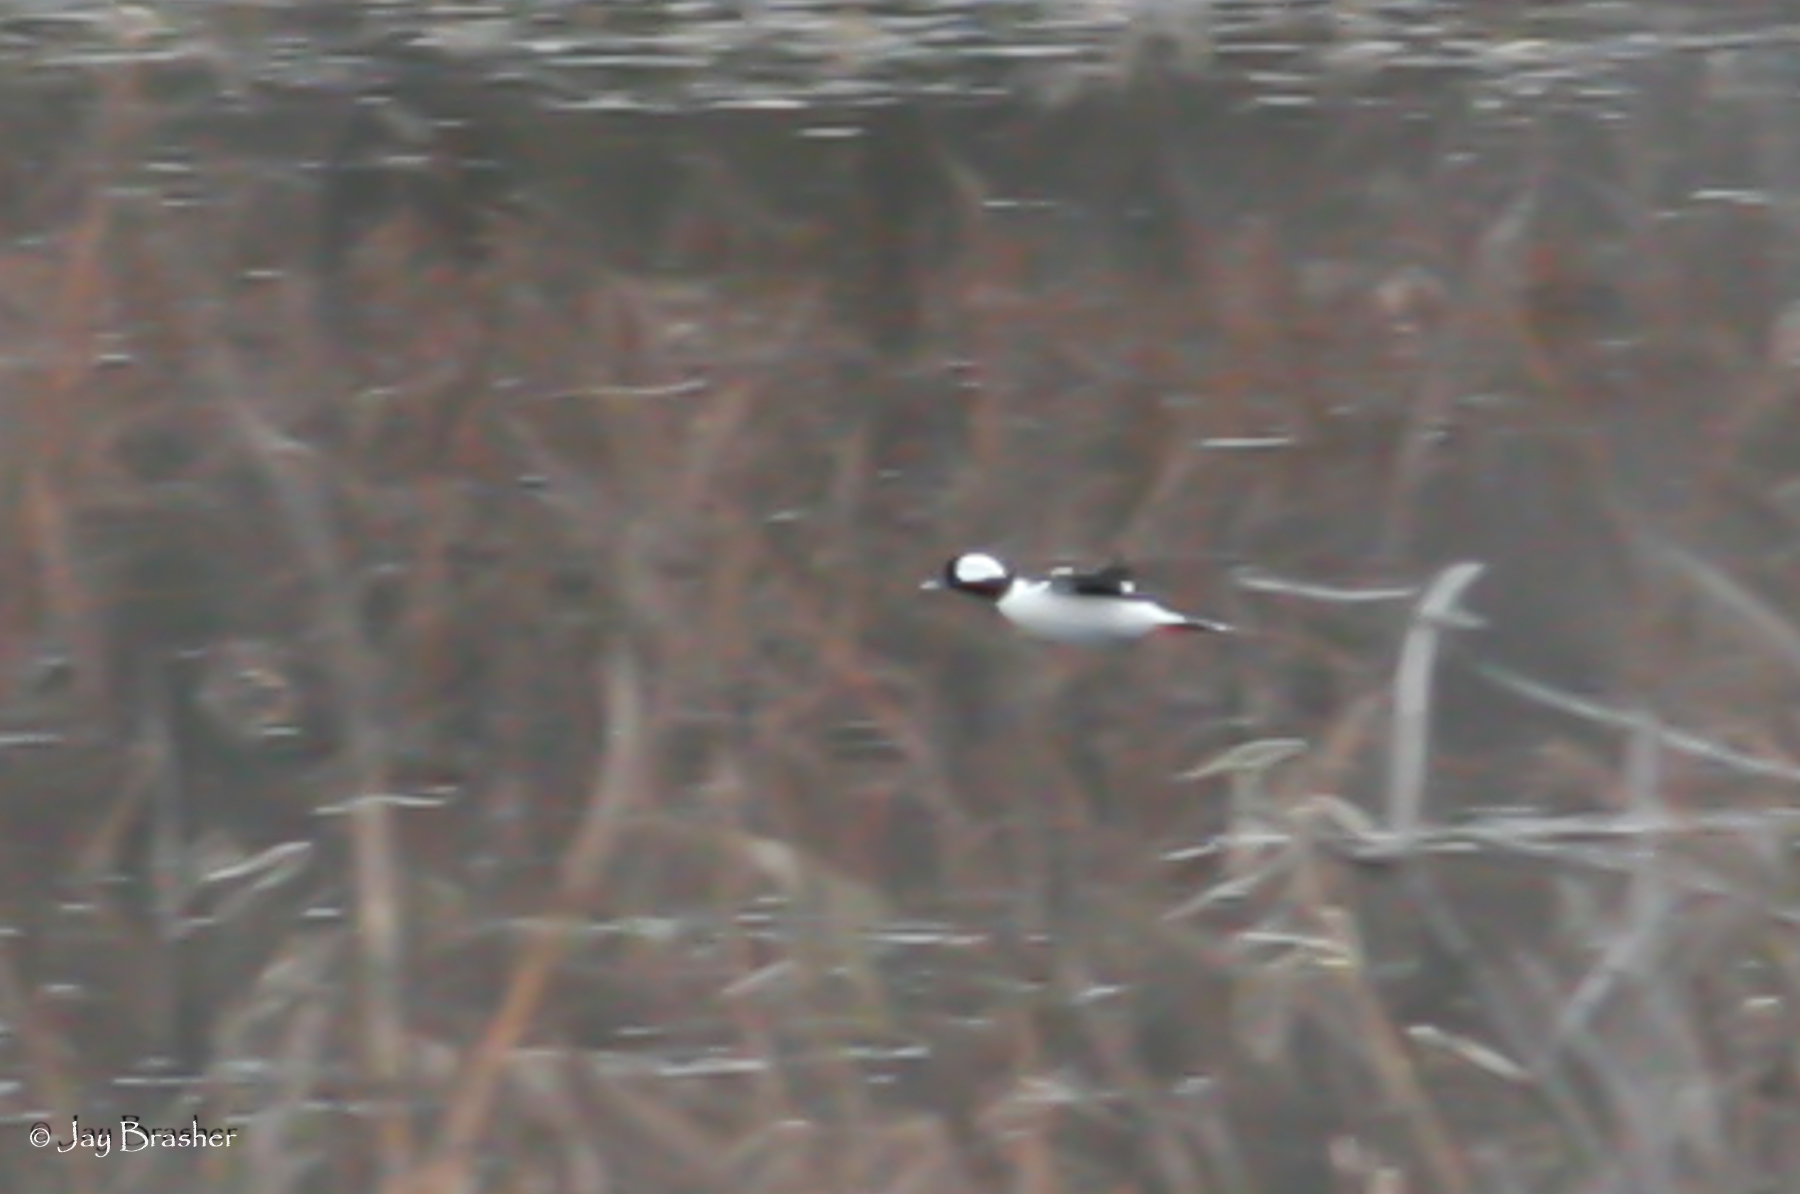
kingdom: Animalia
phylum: Chordata
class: Aves
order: Anseriformes
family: Anatidae
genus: Bucephala
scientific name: Bucephala albeola
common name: Bufflehead
